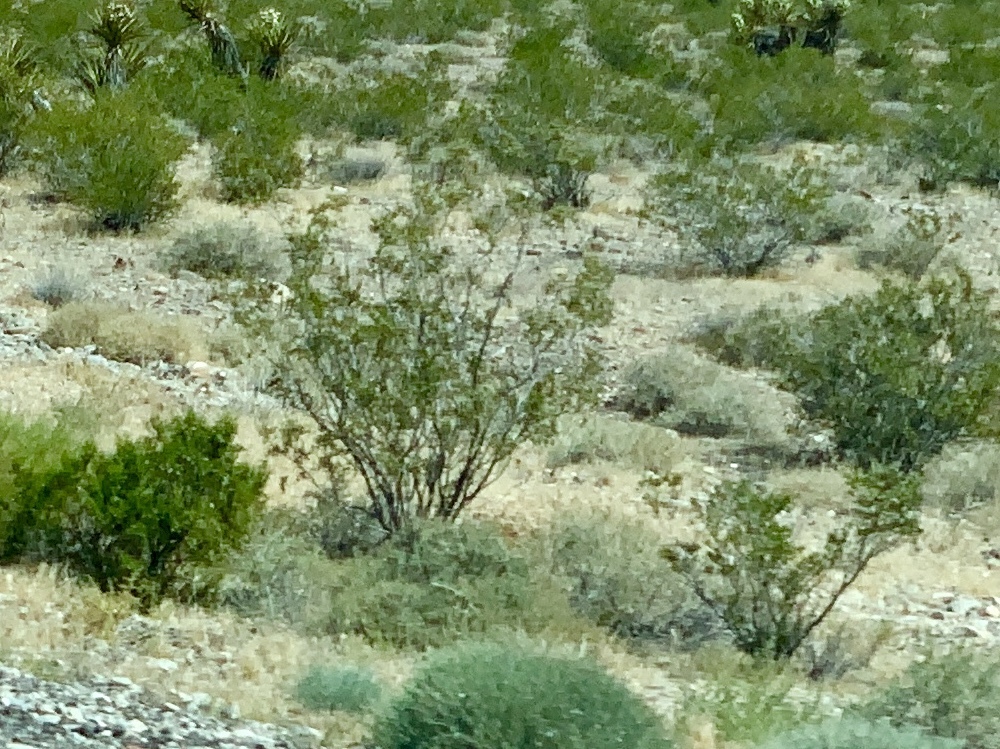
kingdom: Plantae
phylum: Tracheophyta
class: Magnoliopsida
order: Zygophyllales
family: Zygophyllaceae
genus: Larrea
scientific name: Larrea tridentata
